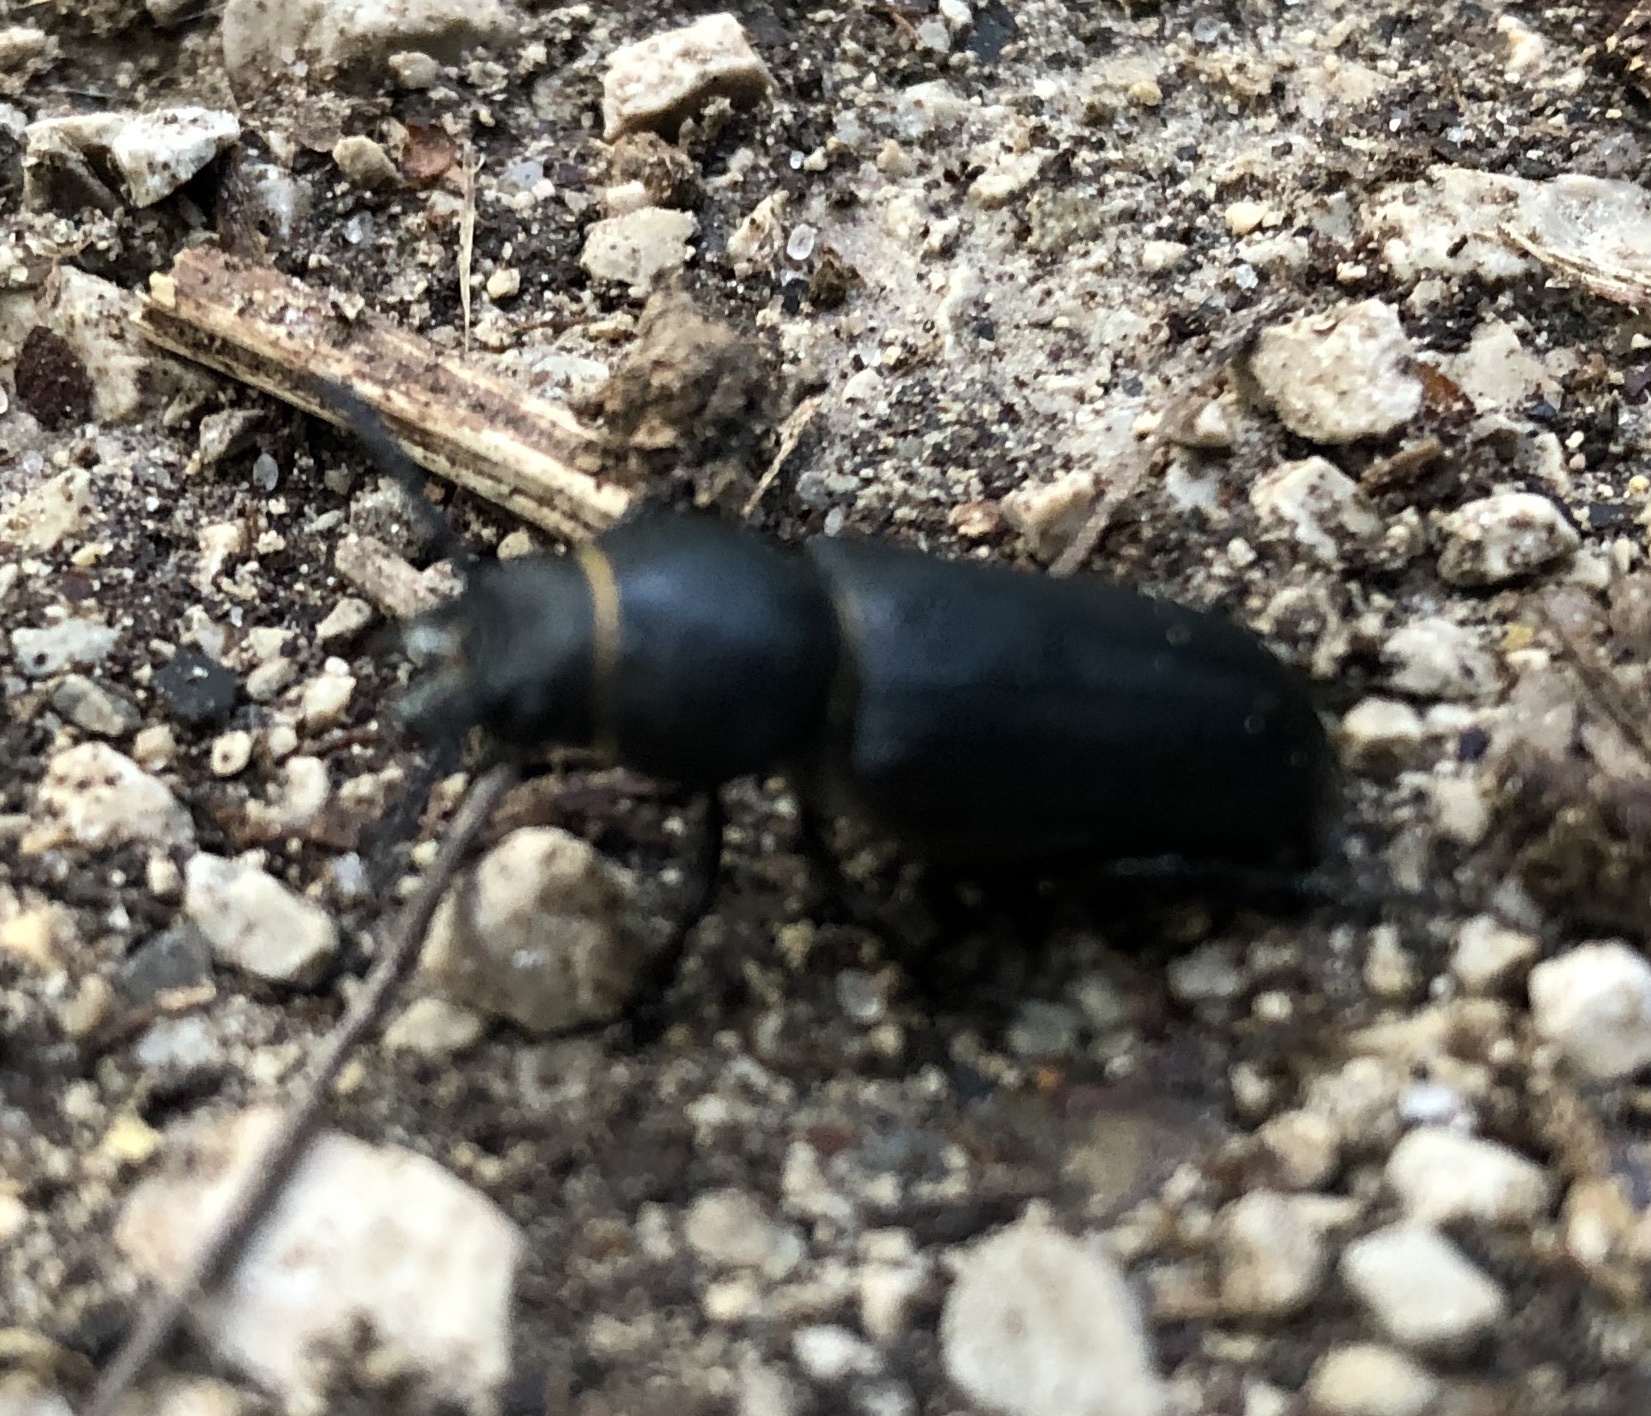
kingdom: Animalia
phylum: Arthropoda
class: Insecta
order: Coleoptera
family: Cerambycidae
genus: Spondylis
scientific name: Spondylis buprestoides
